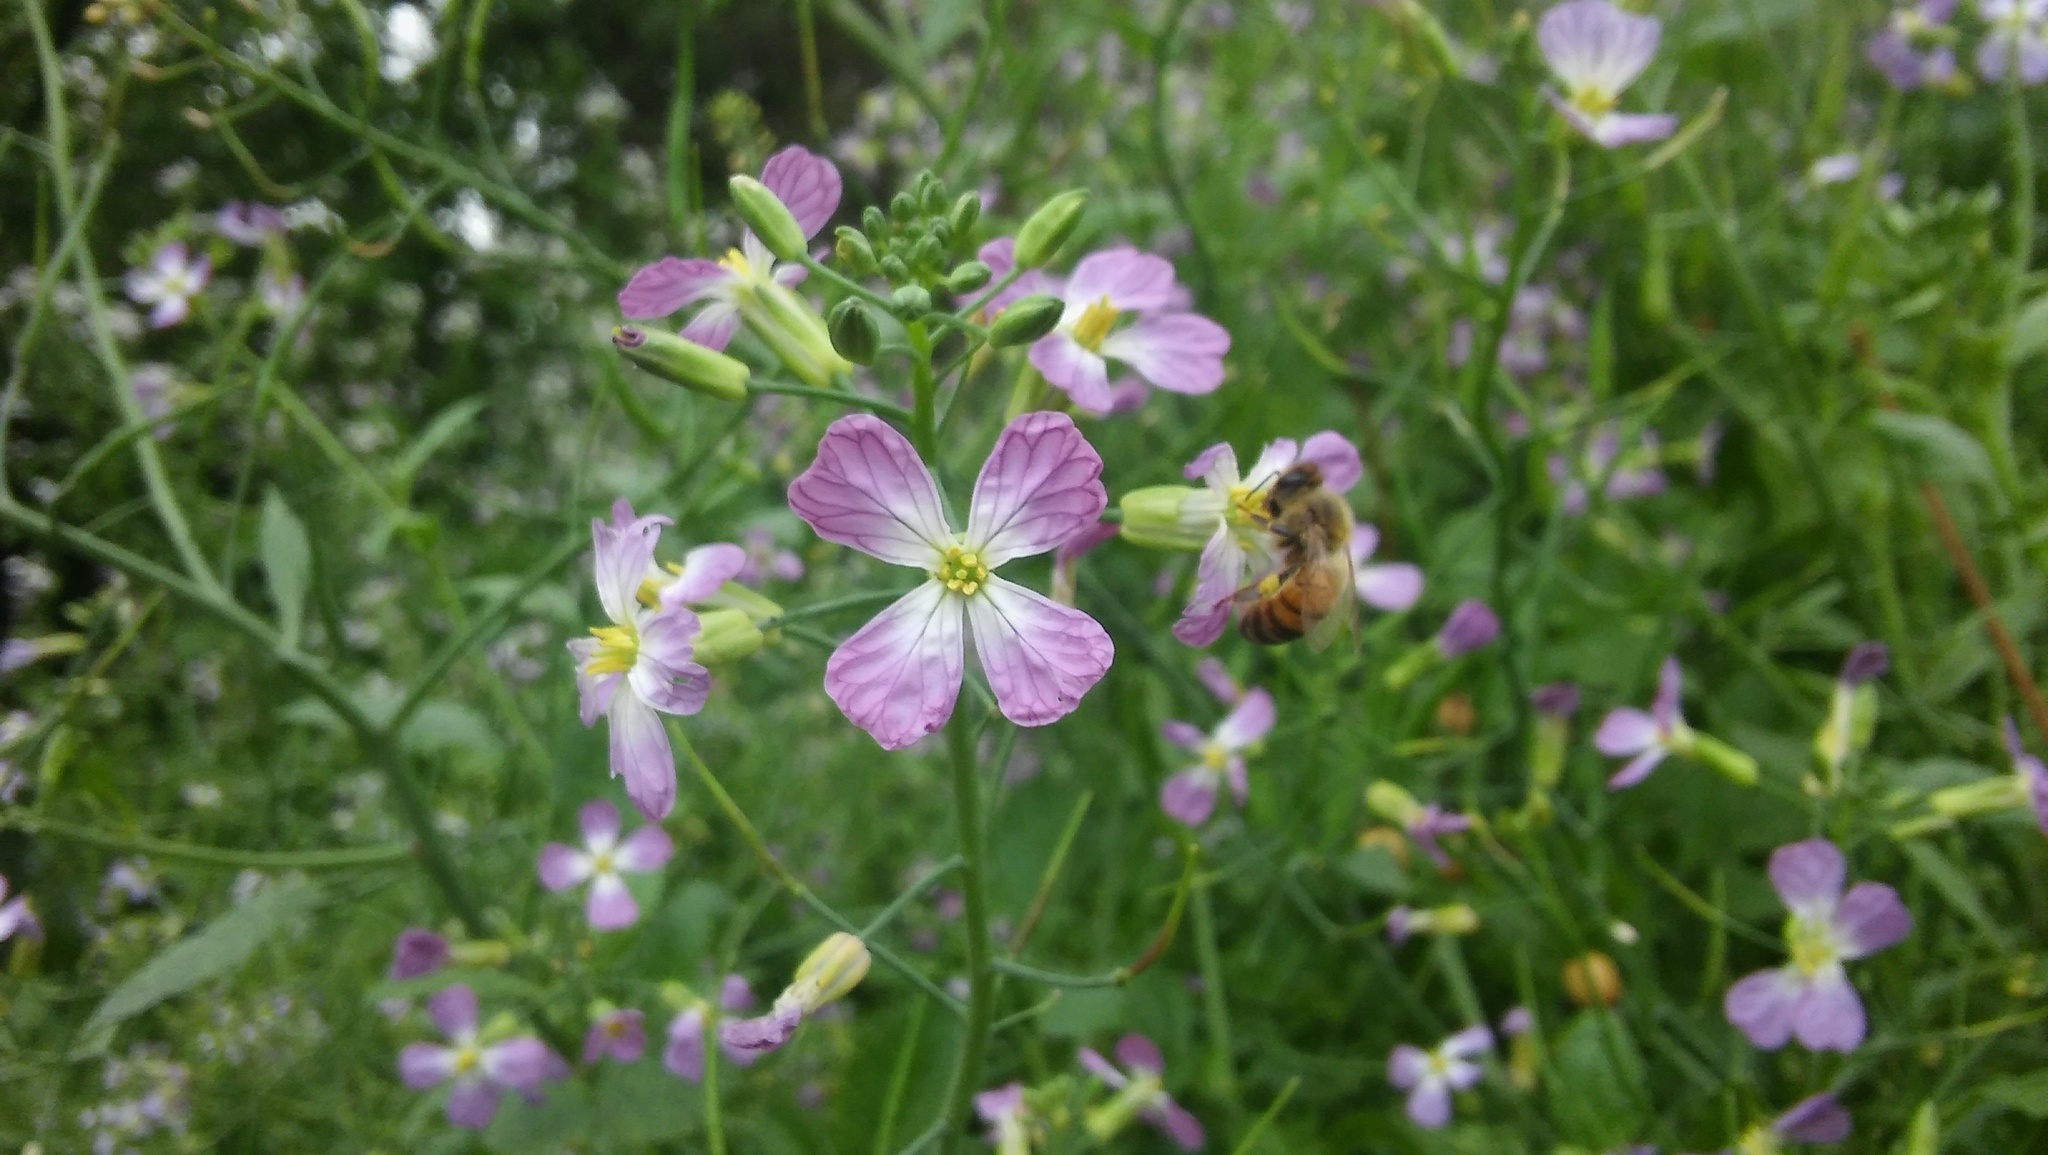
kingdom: Plantae
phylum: Tracheophyta
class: Magnoliopsida
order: Brassicales
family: Brassicaceae
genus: Raphanus
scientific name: Raphanus sativus
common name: Cultivated radish
